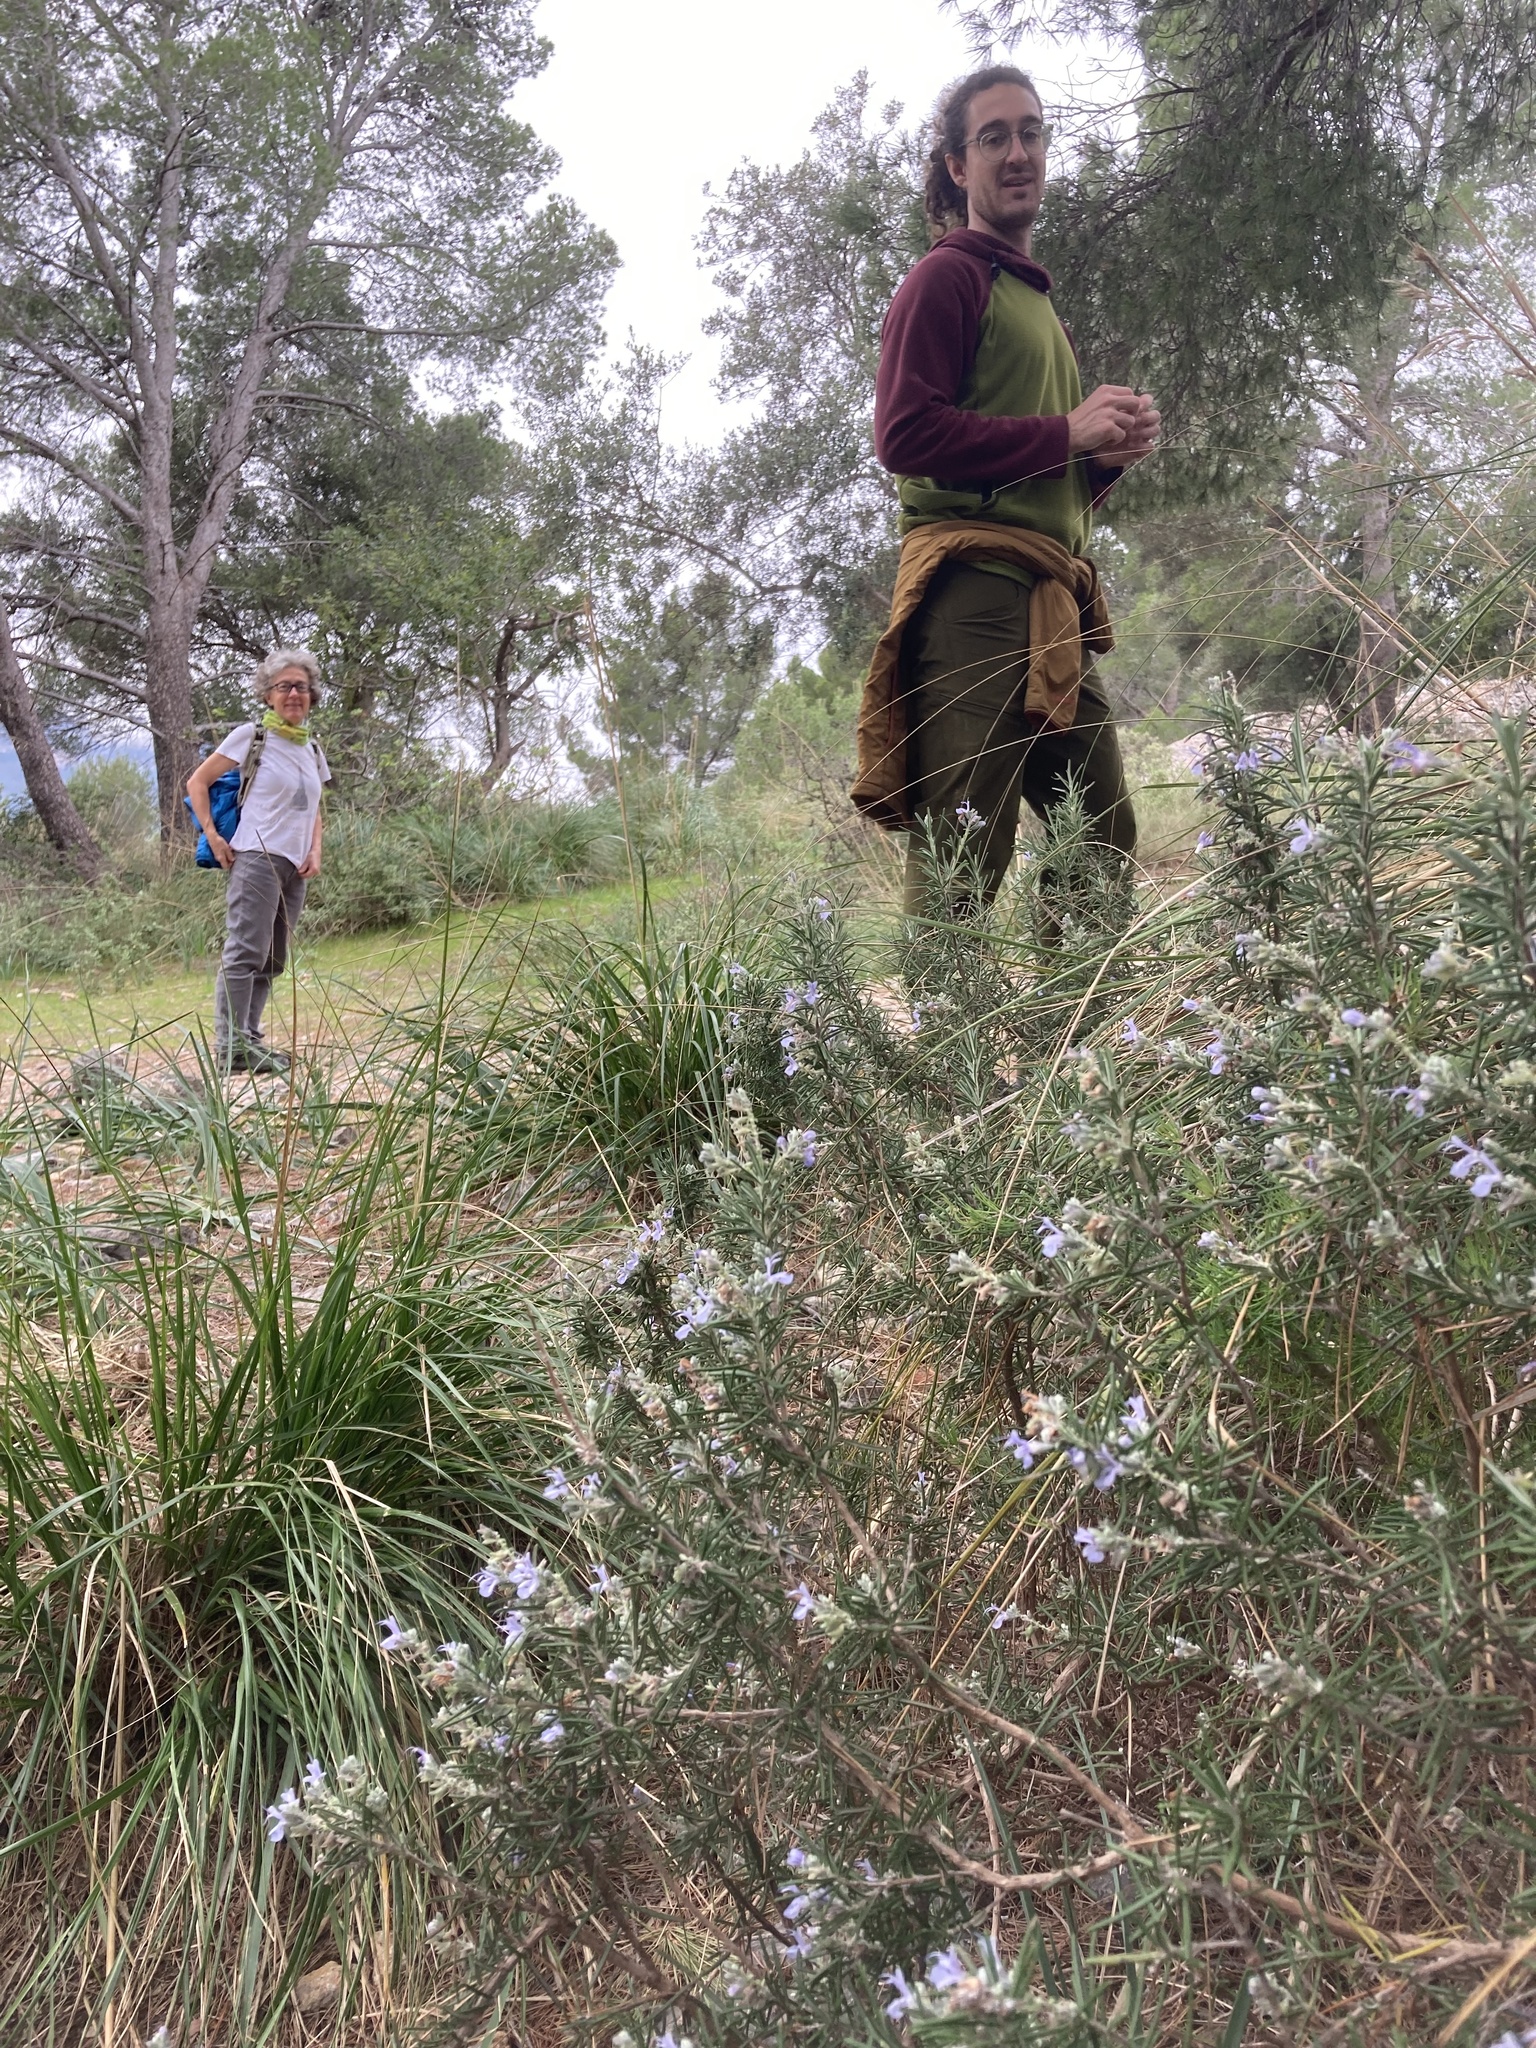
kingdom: Plantae
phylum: Tracheophyta
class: Magnoliopsida
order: Lamiales
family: Lamiaceae
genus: Salvia
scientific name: Salvia rosmarinus
